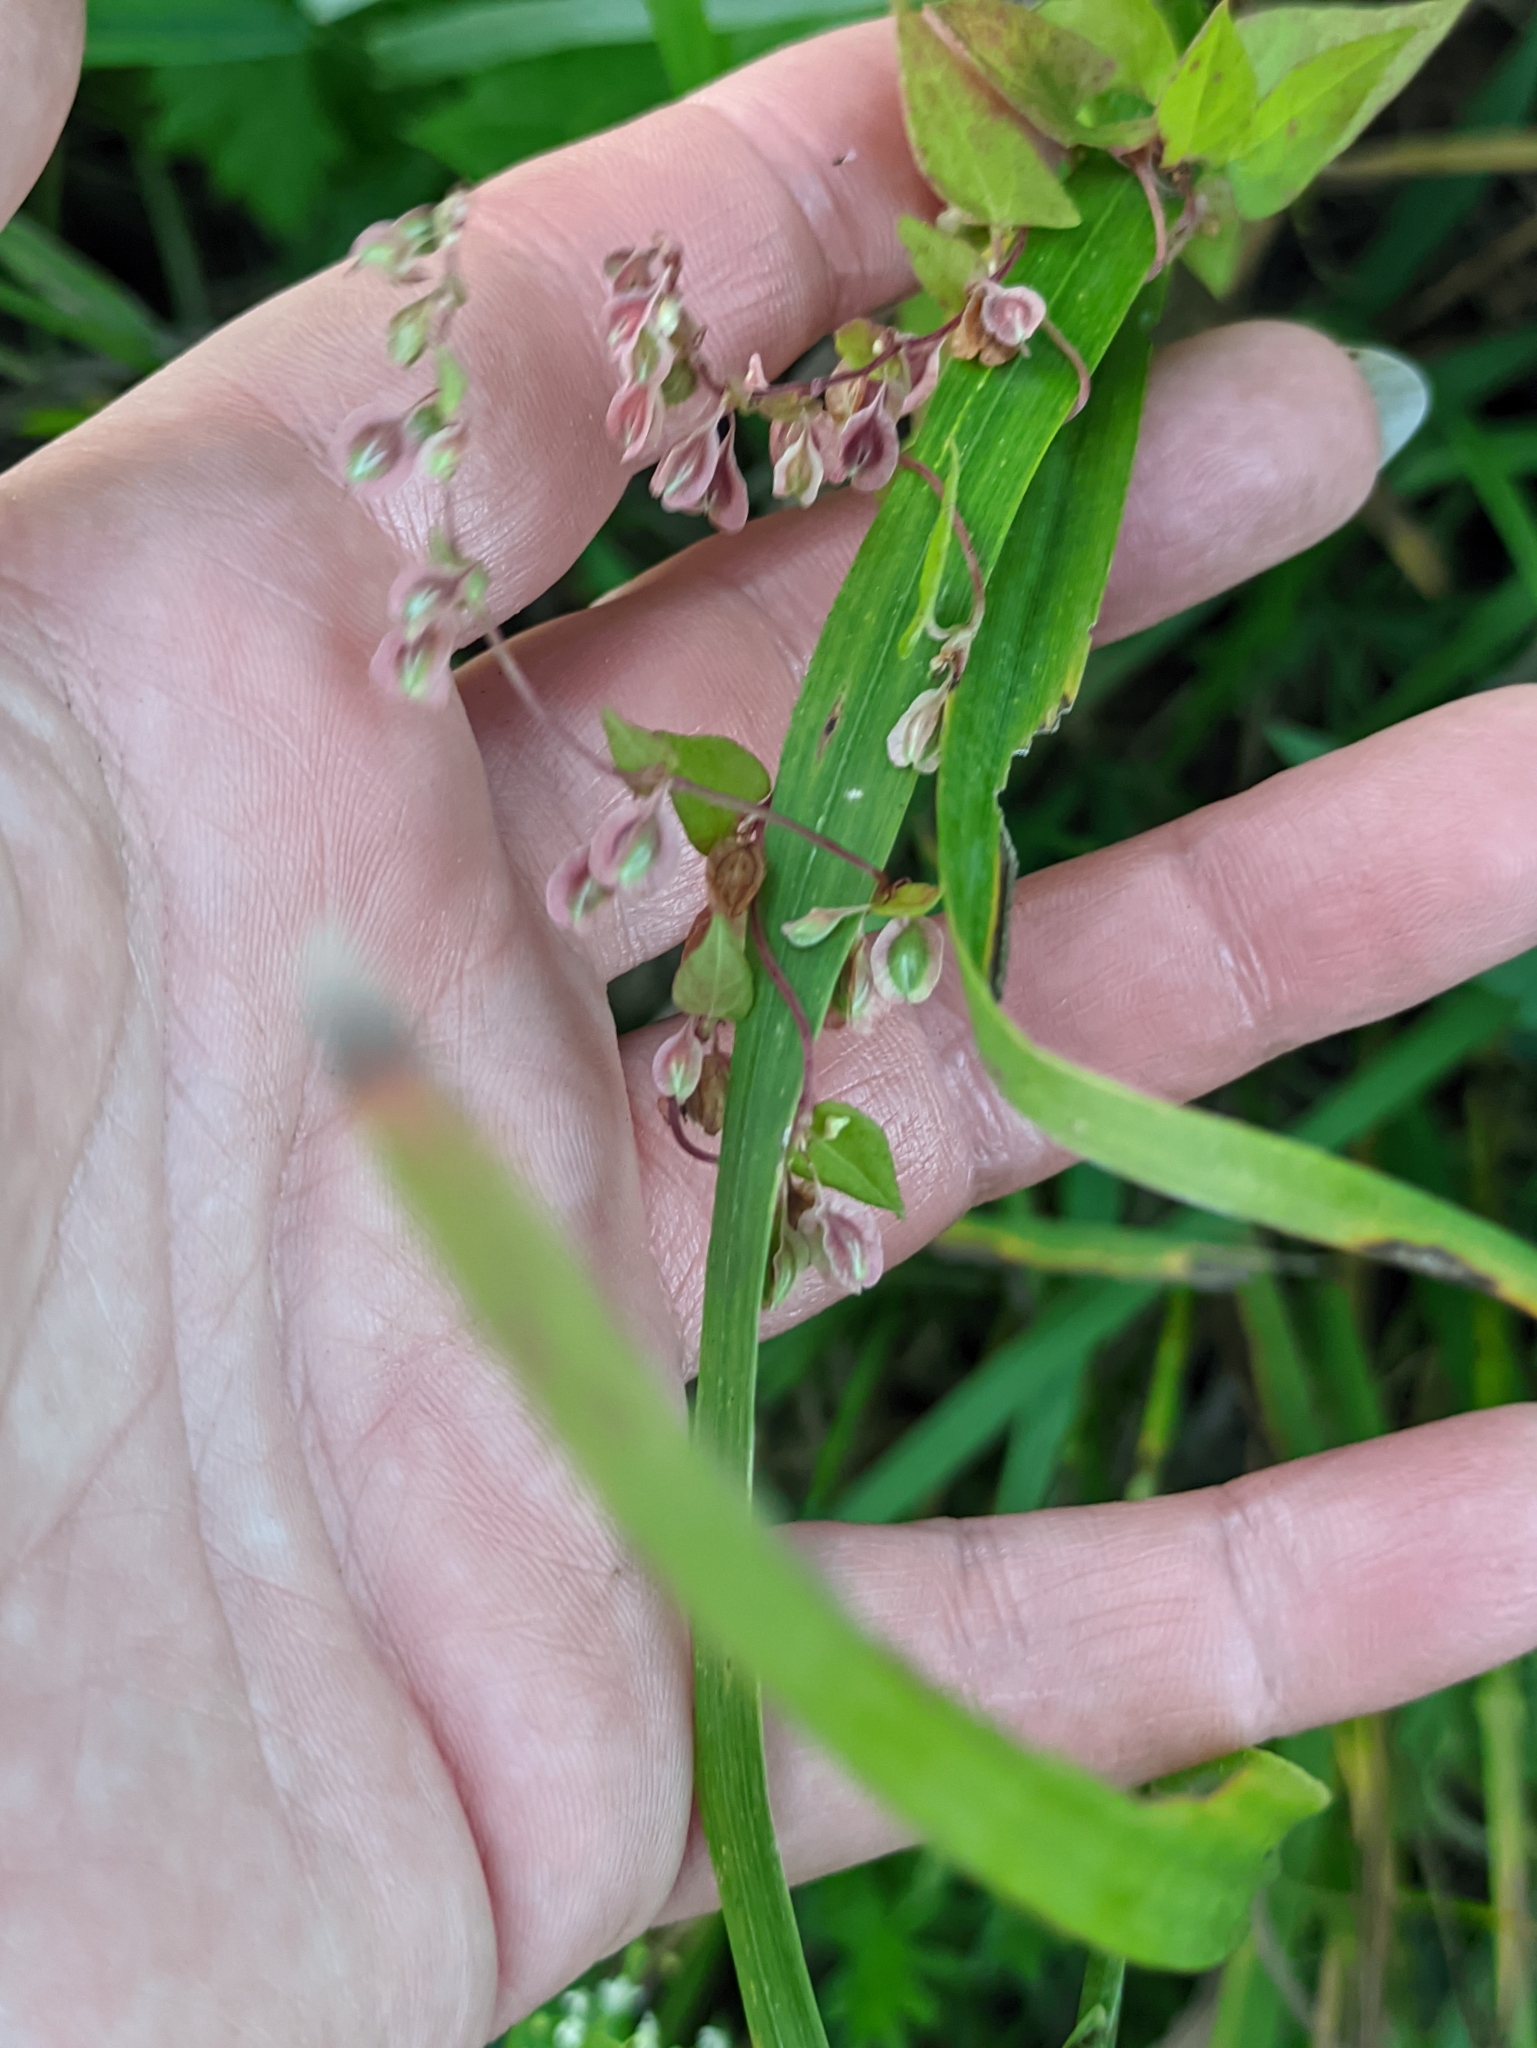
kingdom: Plantae
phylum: Tracheophyta
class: Magnoliopsida
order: Caryophyllales
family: Polygonaceae
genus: Fallopia
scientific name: Fallopia dumetorum
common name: Copse-bindweed
